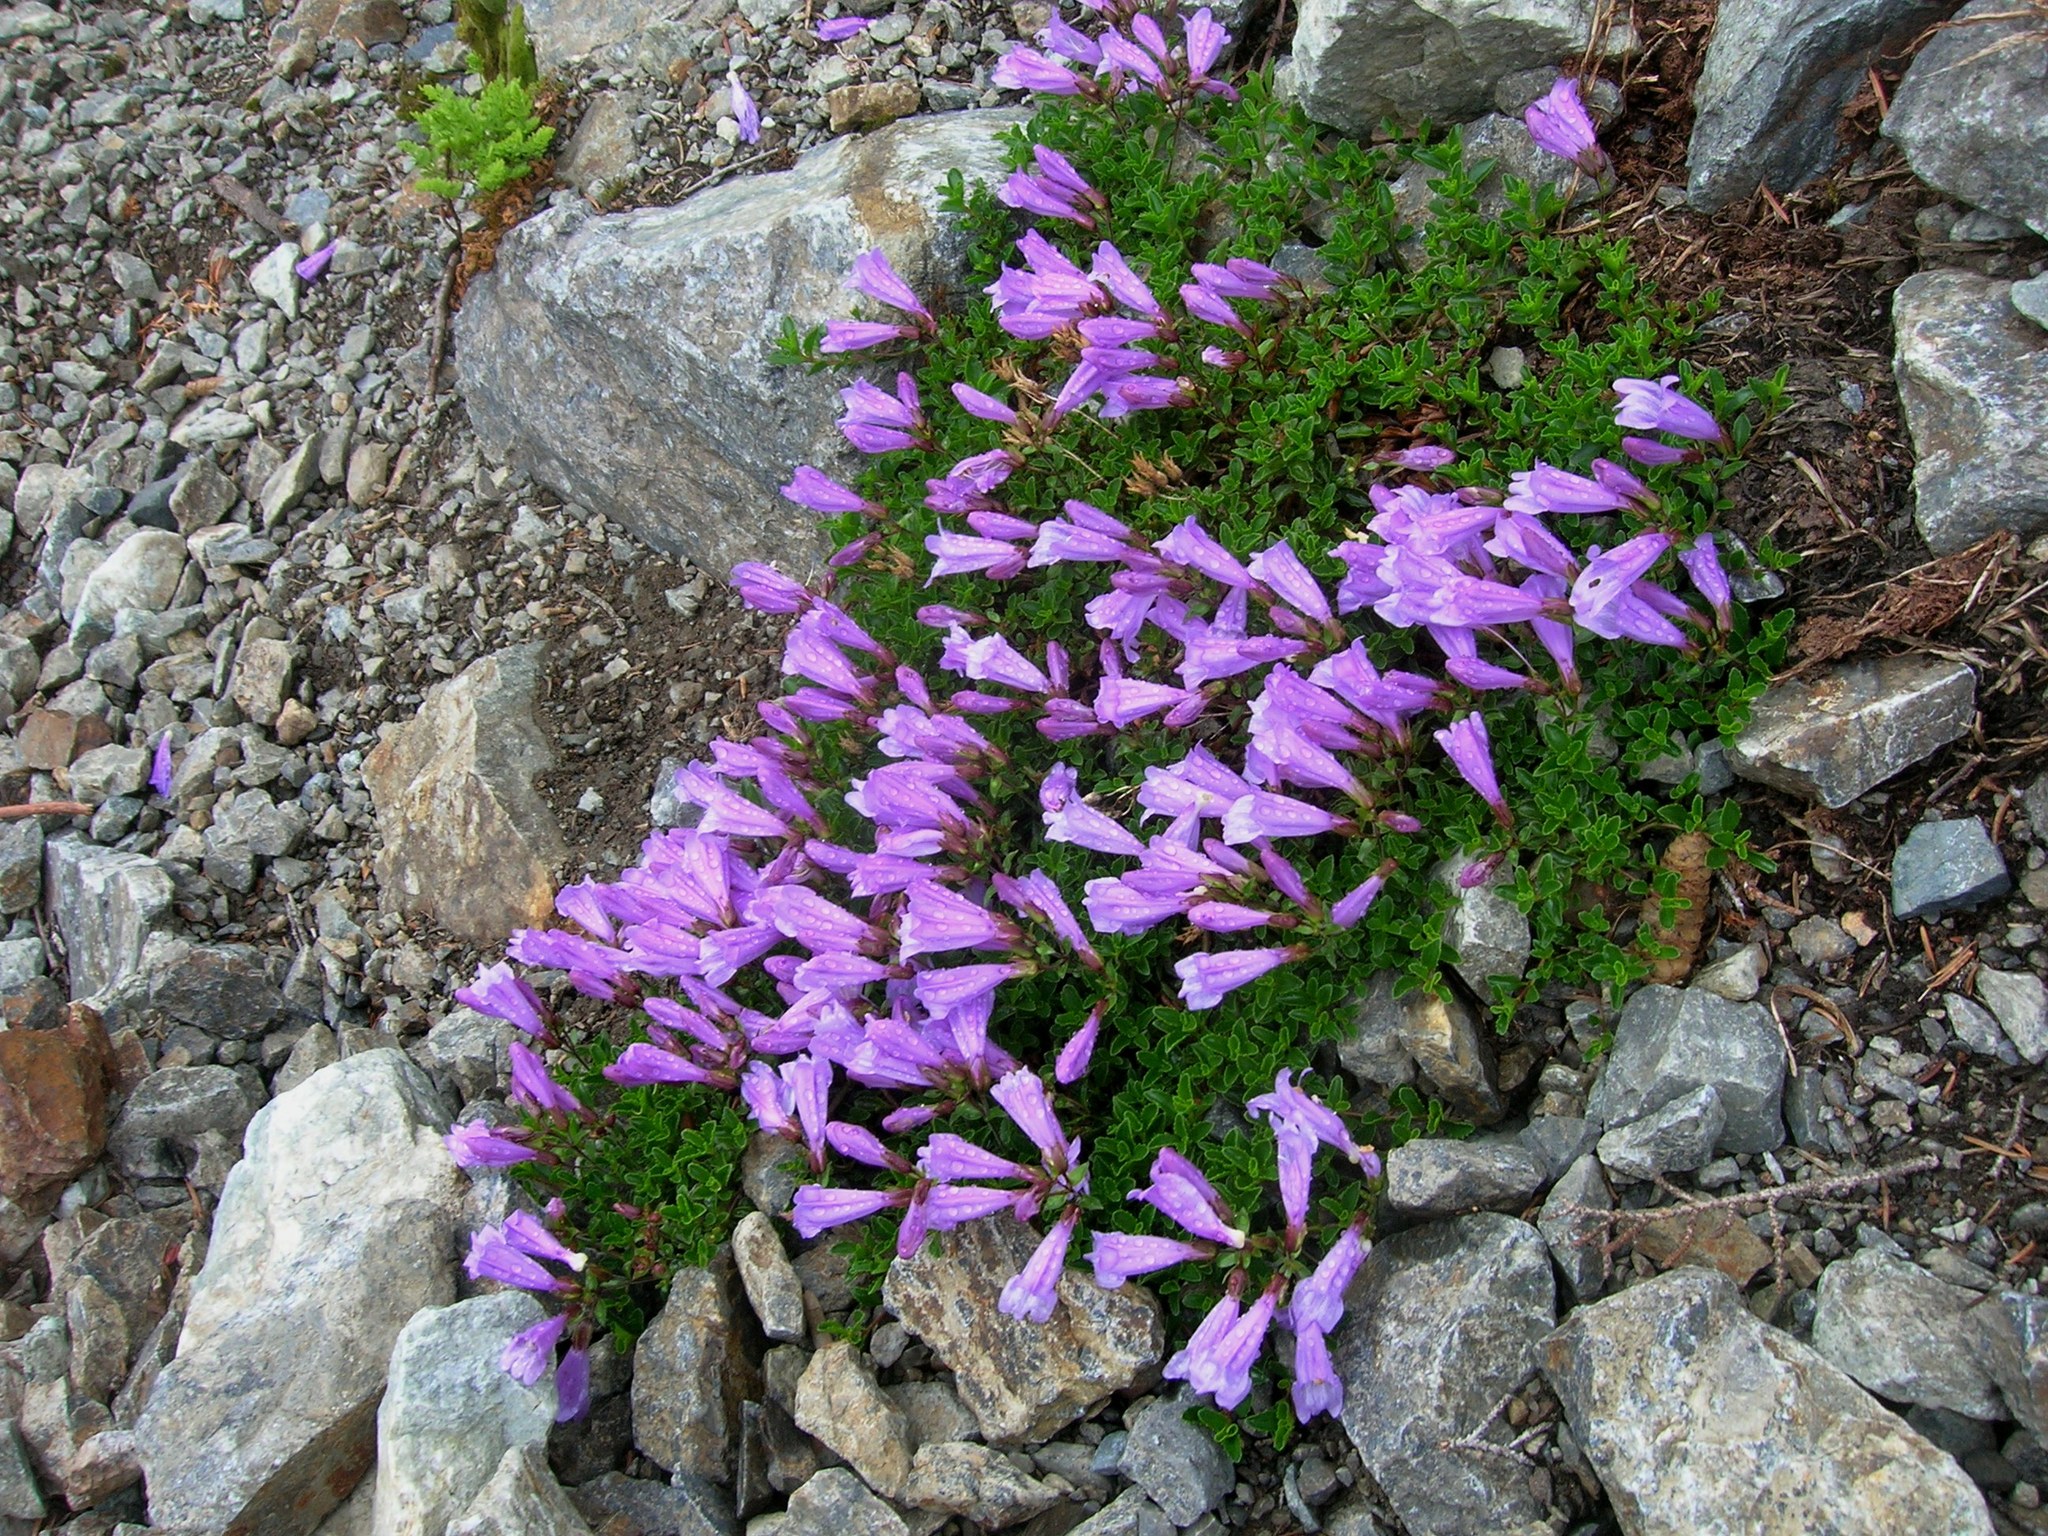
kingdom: Plantae
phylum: Tracheophyta
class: Magnoliopsida
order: Lamiales
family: Plantaginaceae
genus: Penstemon
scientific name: Penstemon davidsonii
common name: Davidson's penstemon
